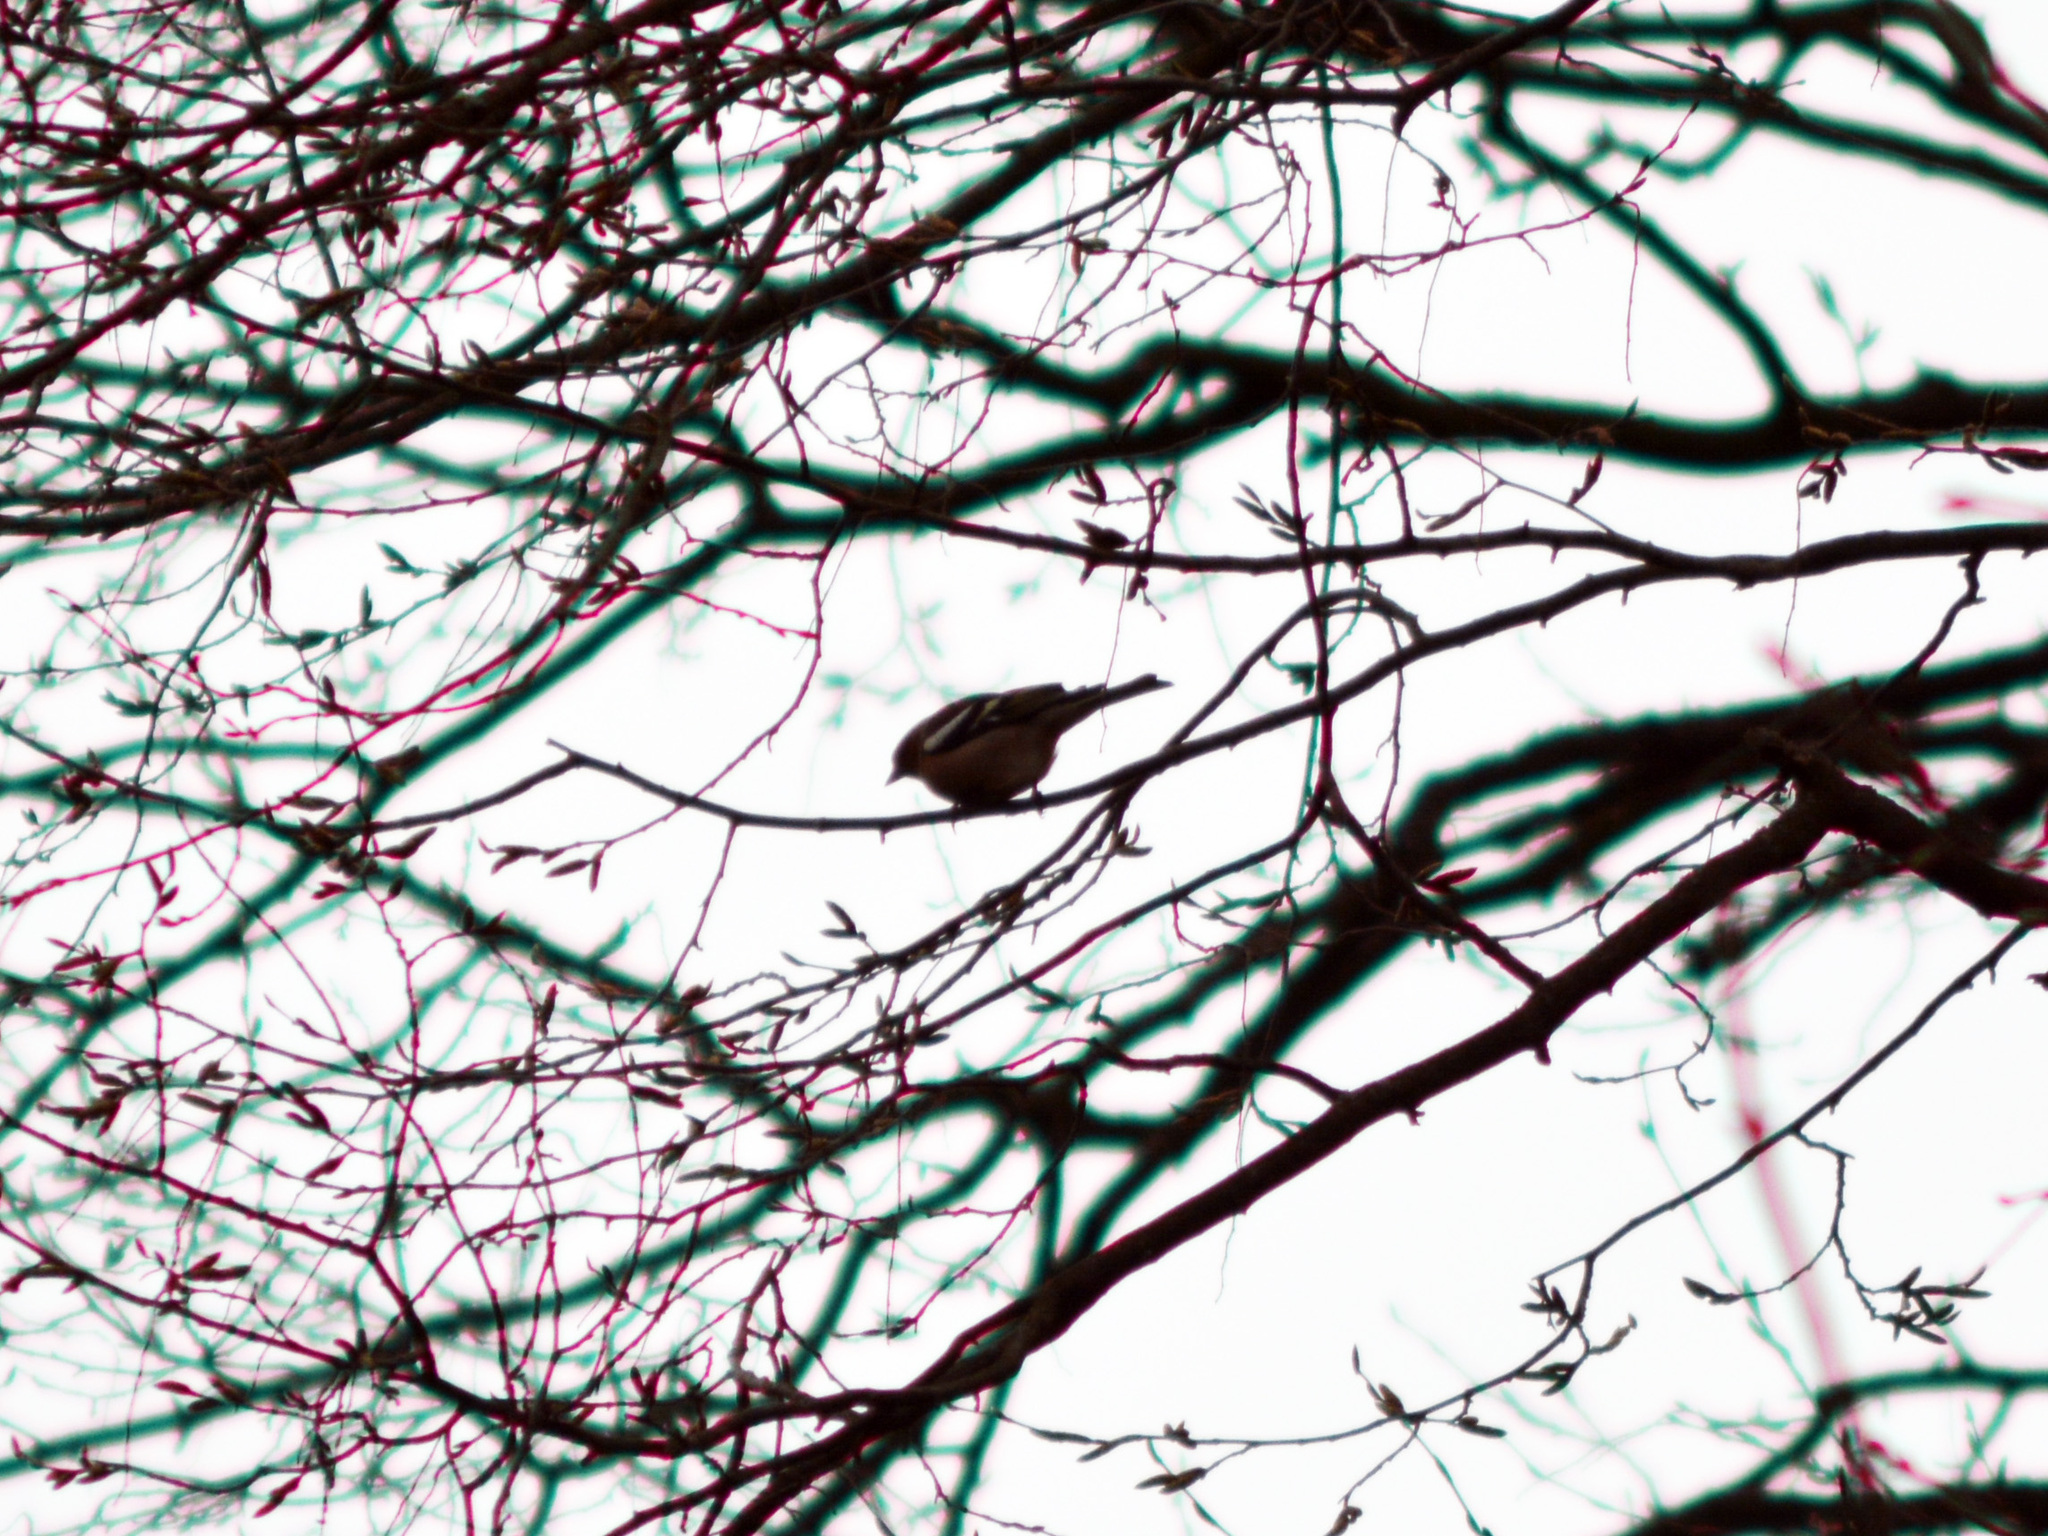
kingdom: Animalia
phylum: Chordata
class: Aves
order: Passeriformes
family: Fringillidae
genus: Fringilla
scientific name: Fringilla coelebs
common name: Common chaffinch
